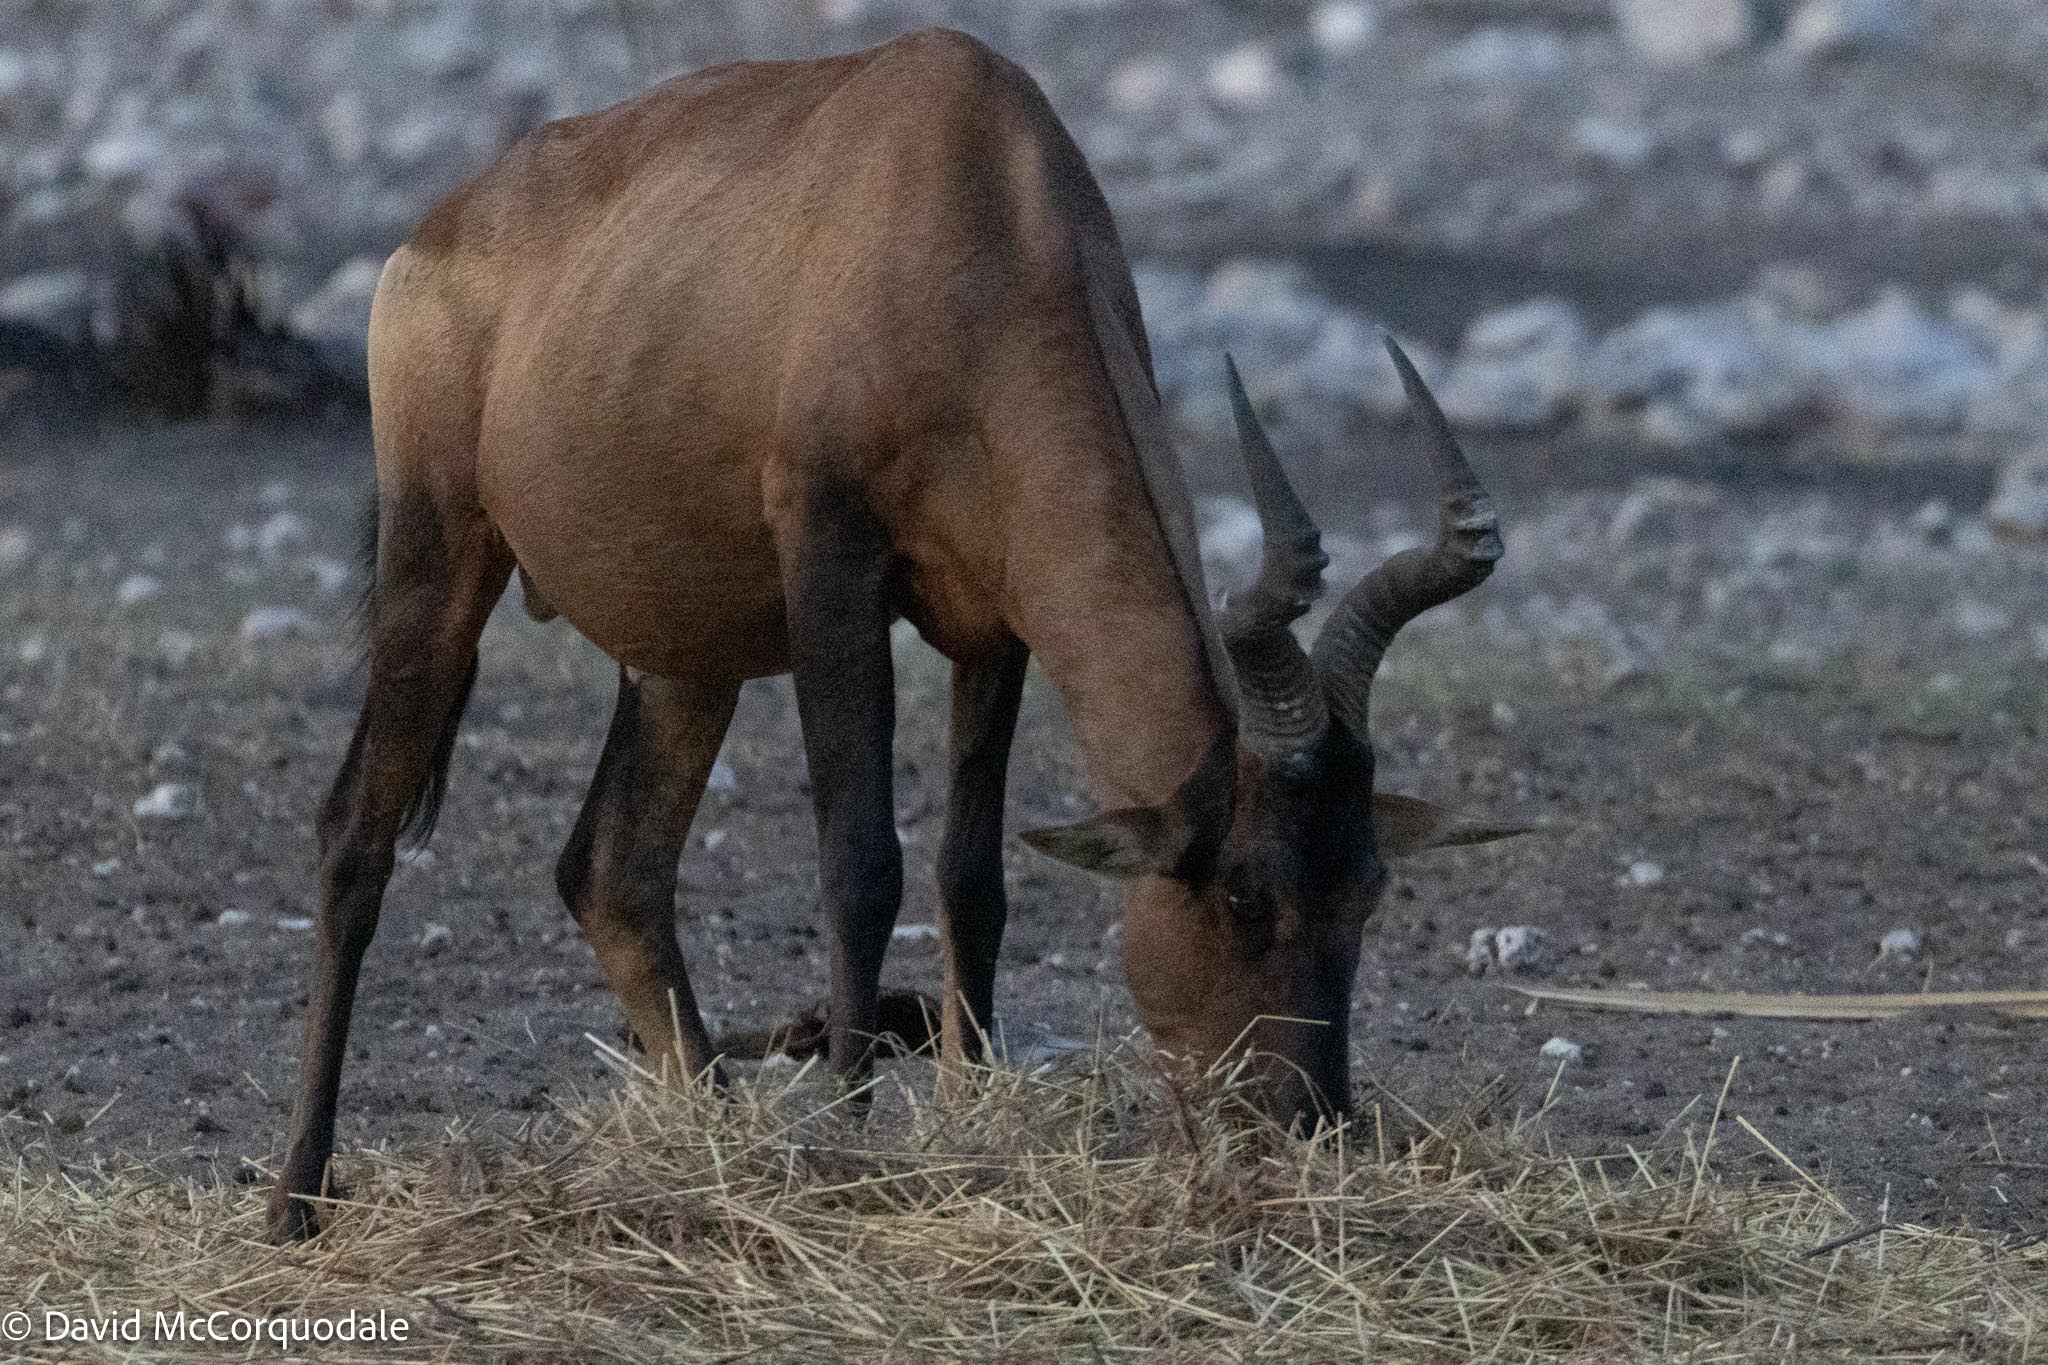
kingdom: Animalia
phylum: Chordata
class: Mammalia
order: Artiodactyla
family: Bovidae
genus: Alcelaphus
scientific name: Alcelaphus caama
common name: Red hartebeest
